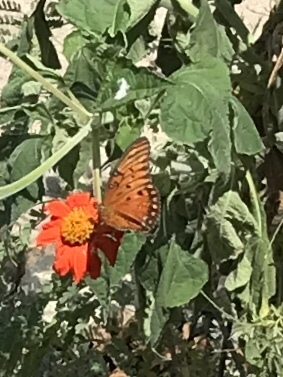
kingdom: Animalia
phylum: Arthropoda
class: Insecta
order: Lepidoptera
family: Nymphalidae
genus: Dione
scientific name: Dione vanillae
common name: Gulf fritillary
